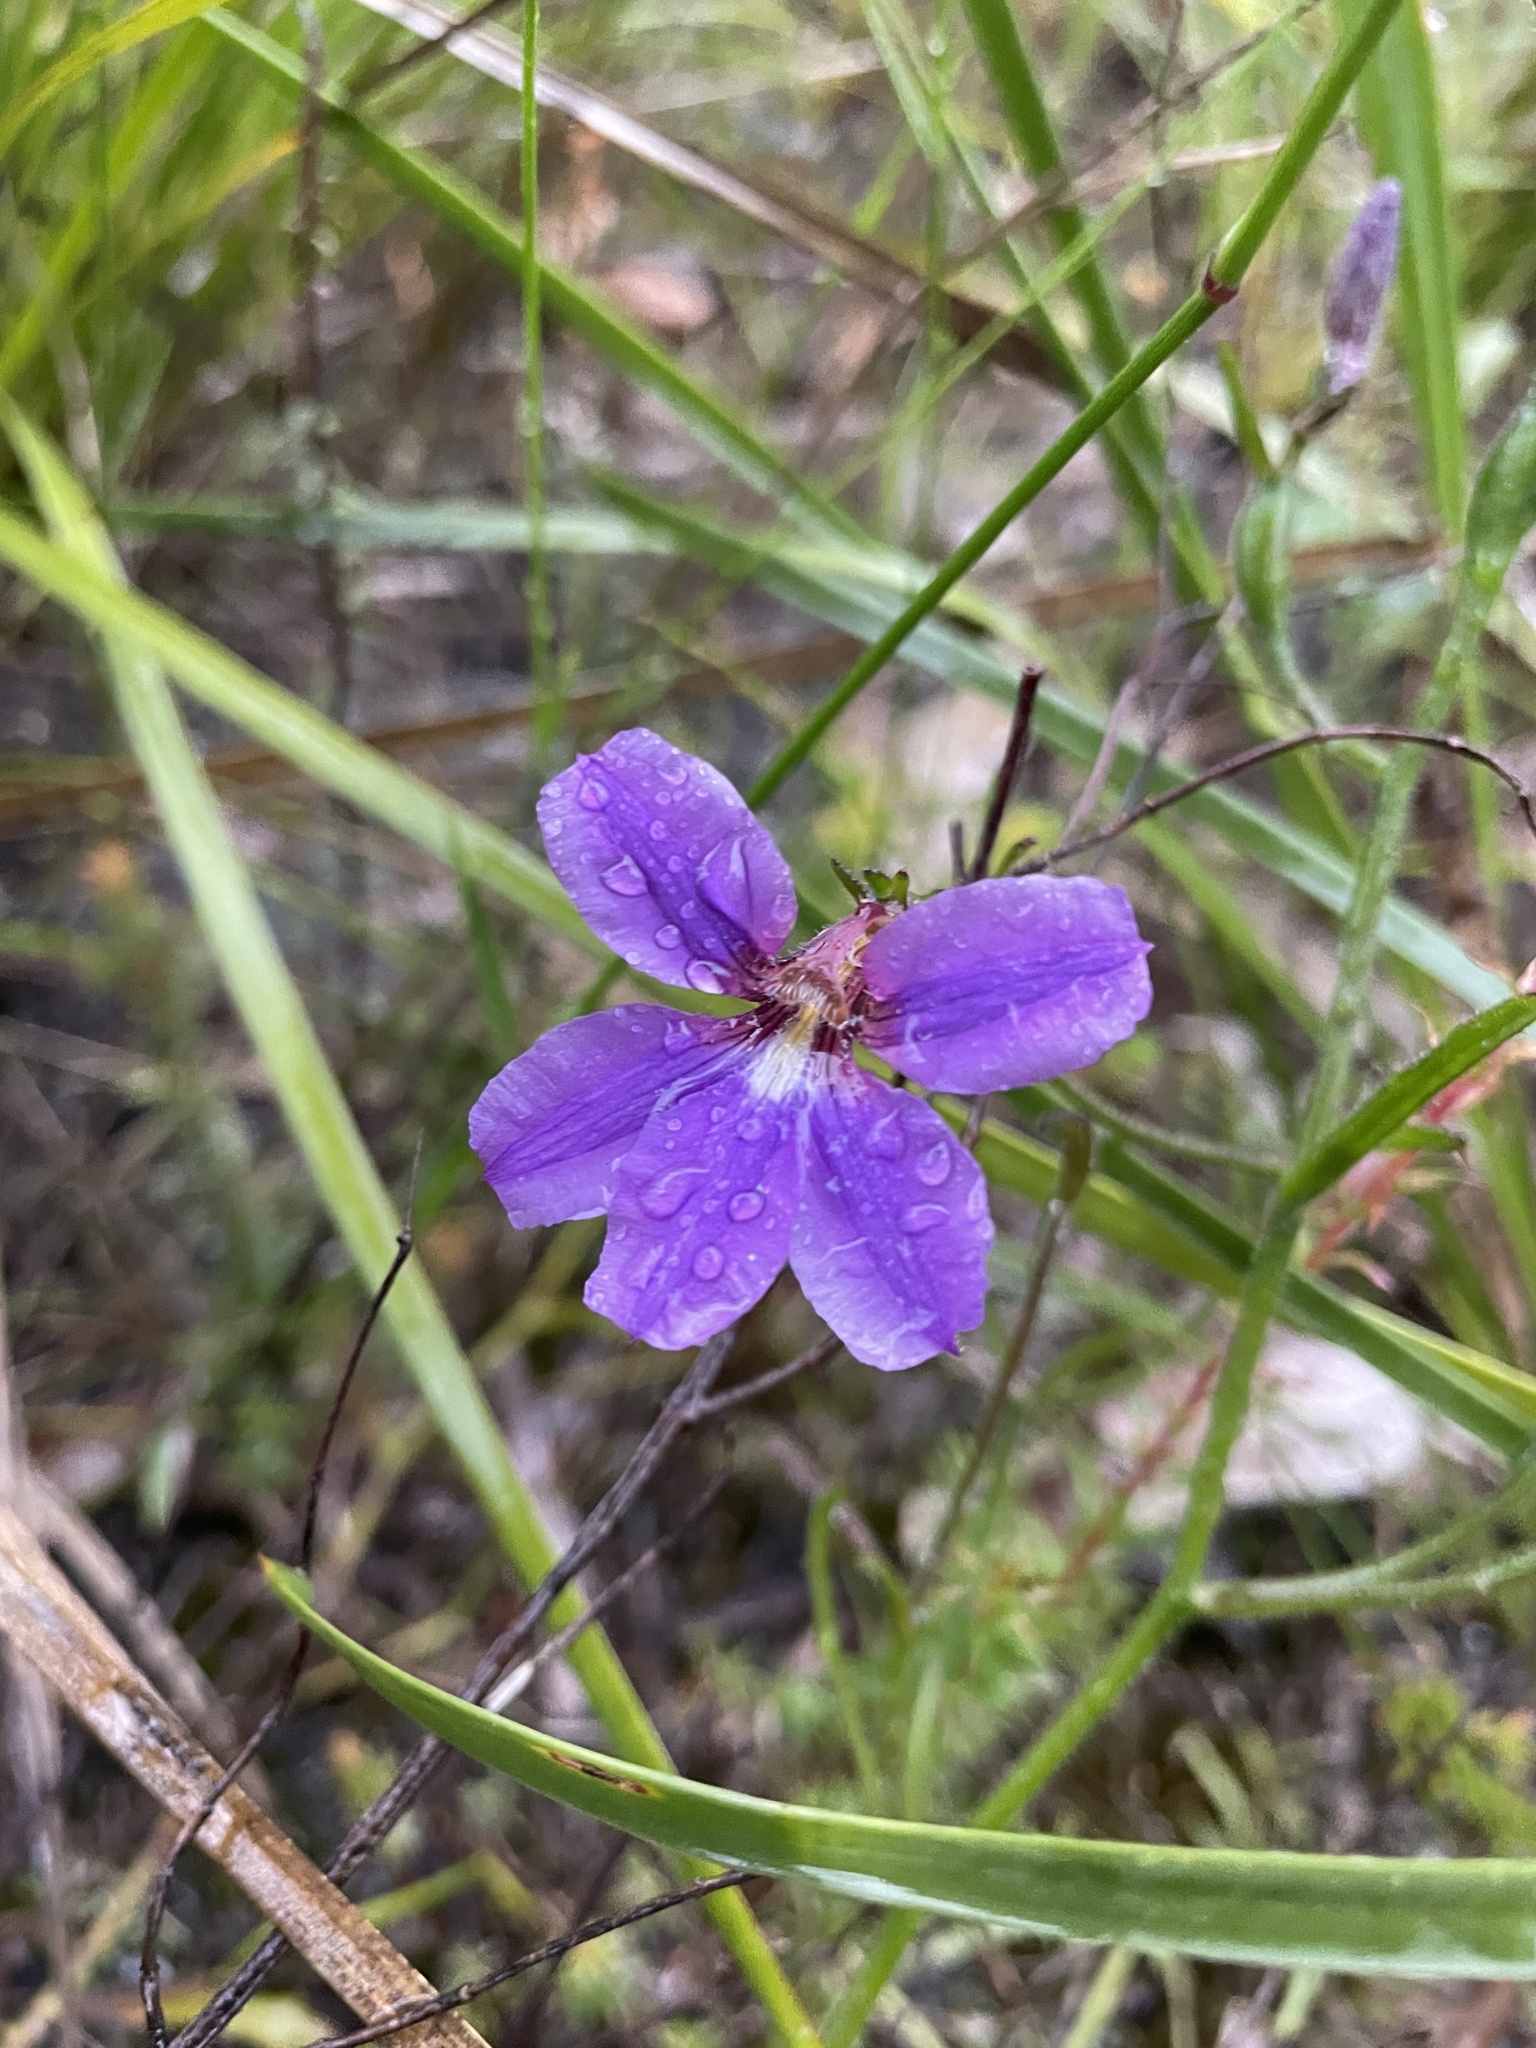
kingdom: Plantae
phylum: Tracheophyta
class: Magnoliopsida
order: Asterales
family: Goodeniaceae
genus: Scaevola
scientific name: Scaevola ramosissima
